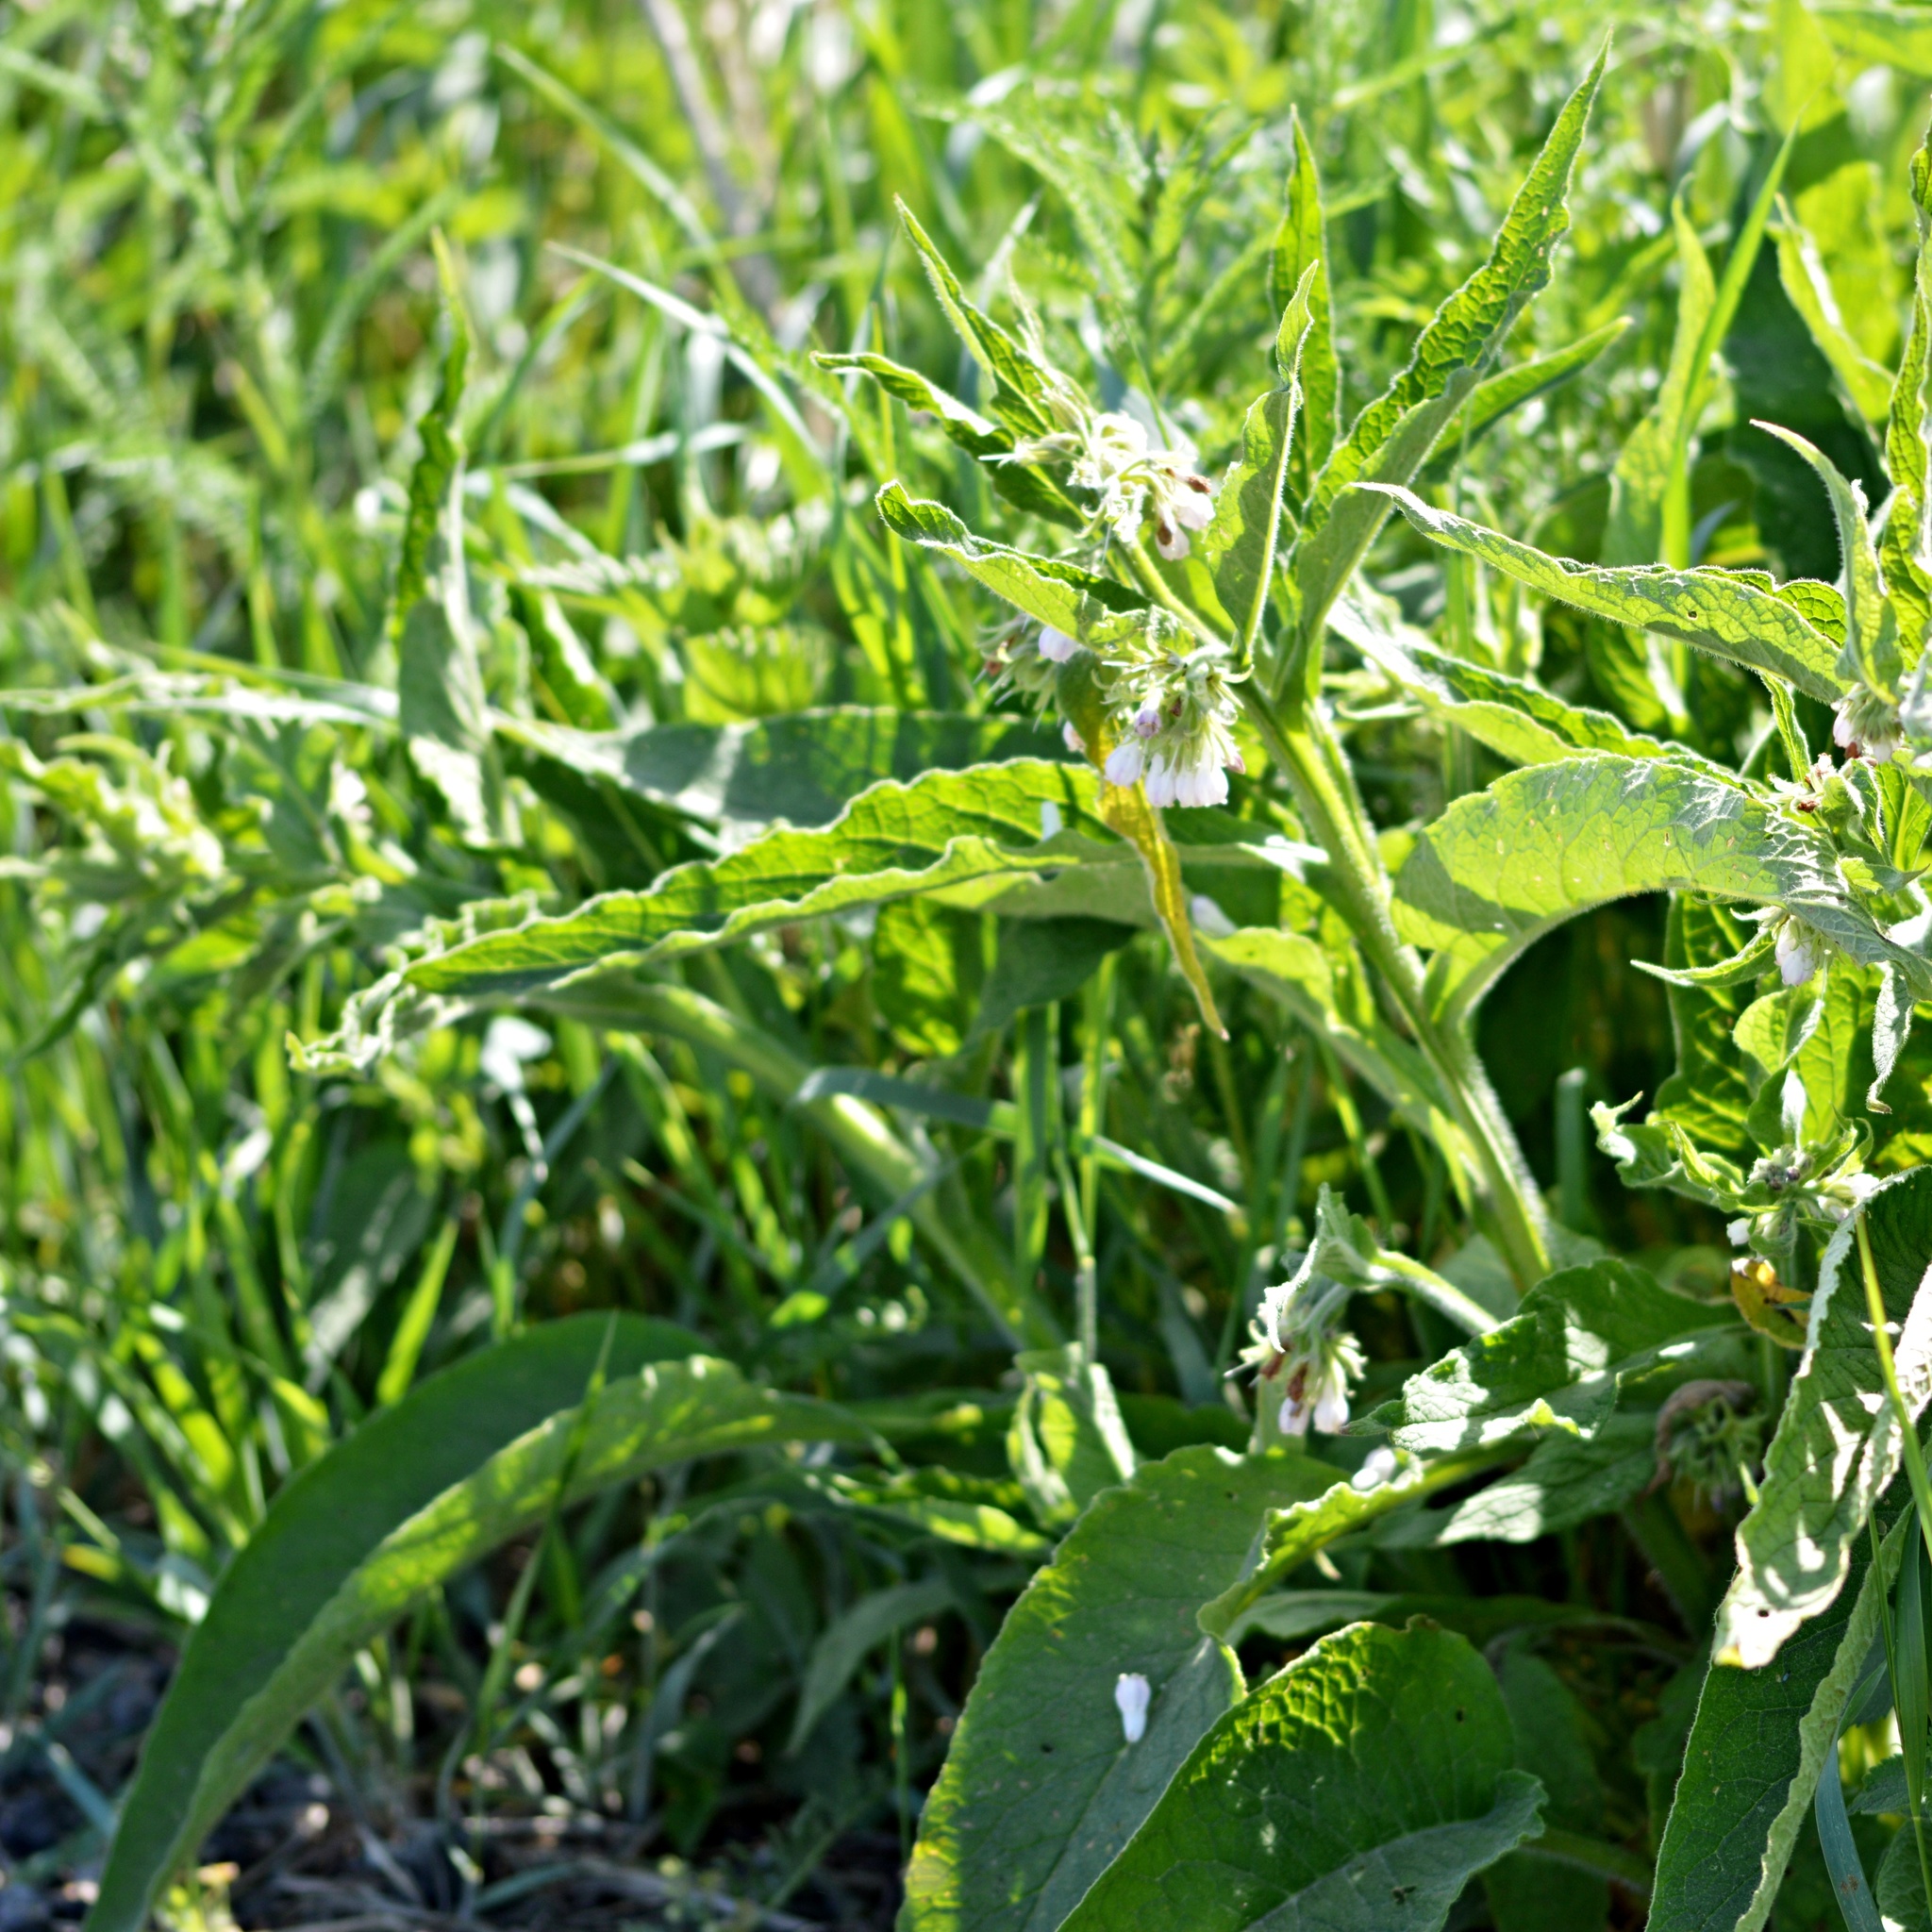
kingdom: Plantae
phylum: Tracheophyta
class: Magnoliopsida
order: Boraginales
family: Boraginaceae
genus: Symphytum
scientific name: Symphytum officinale
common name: Common comfrey
